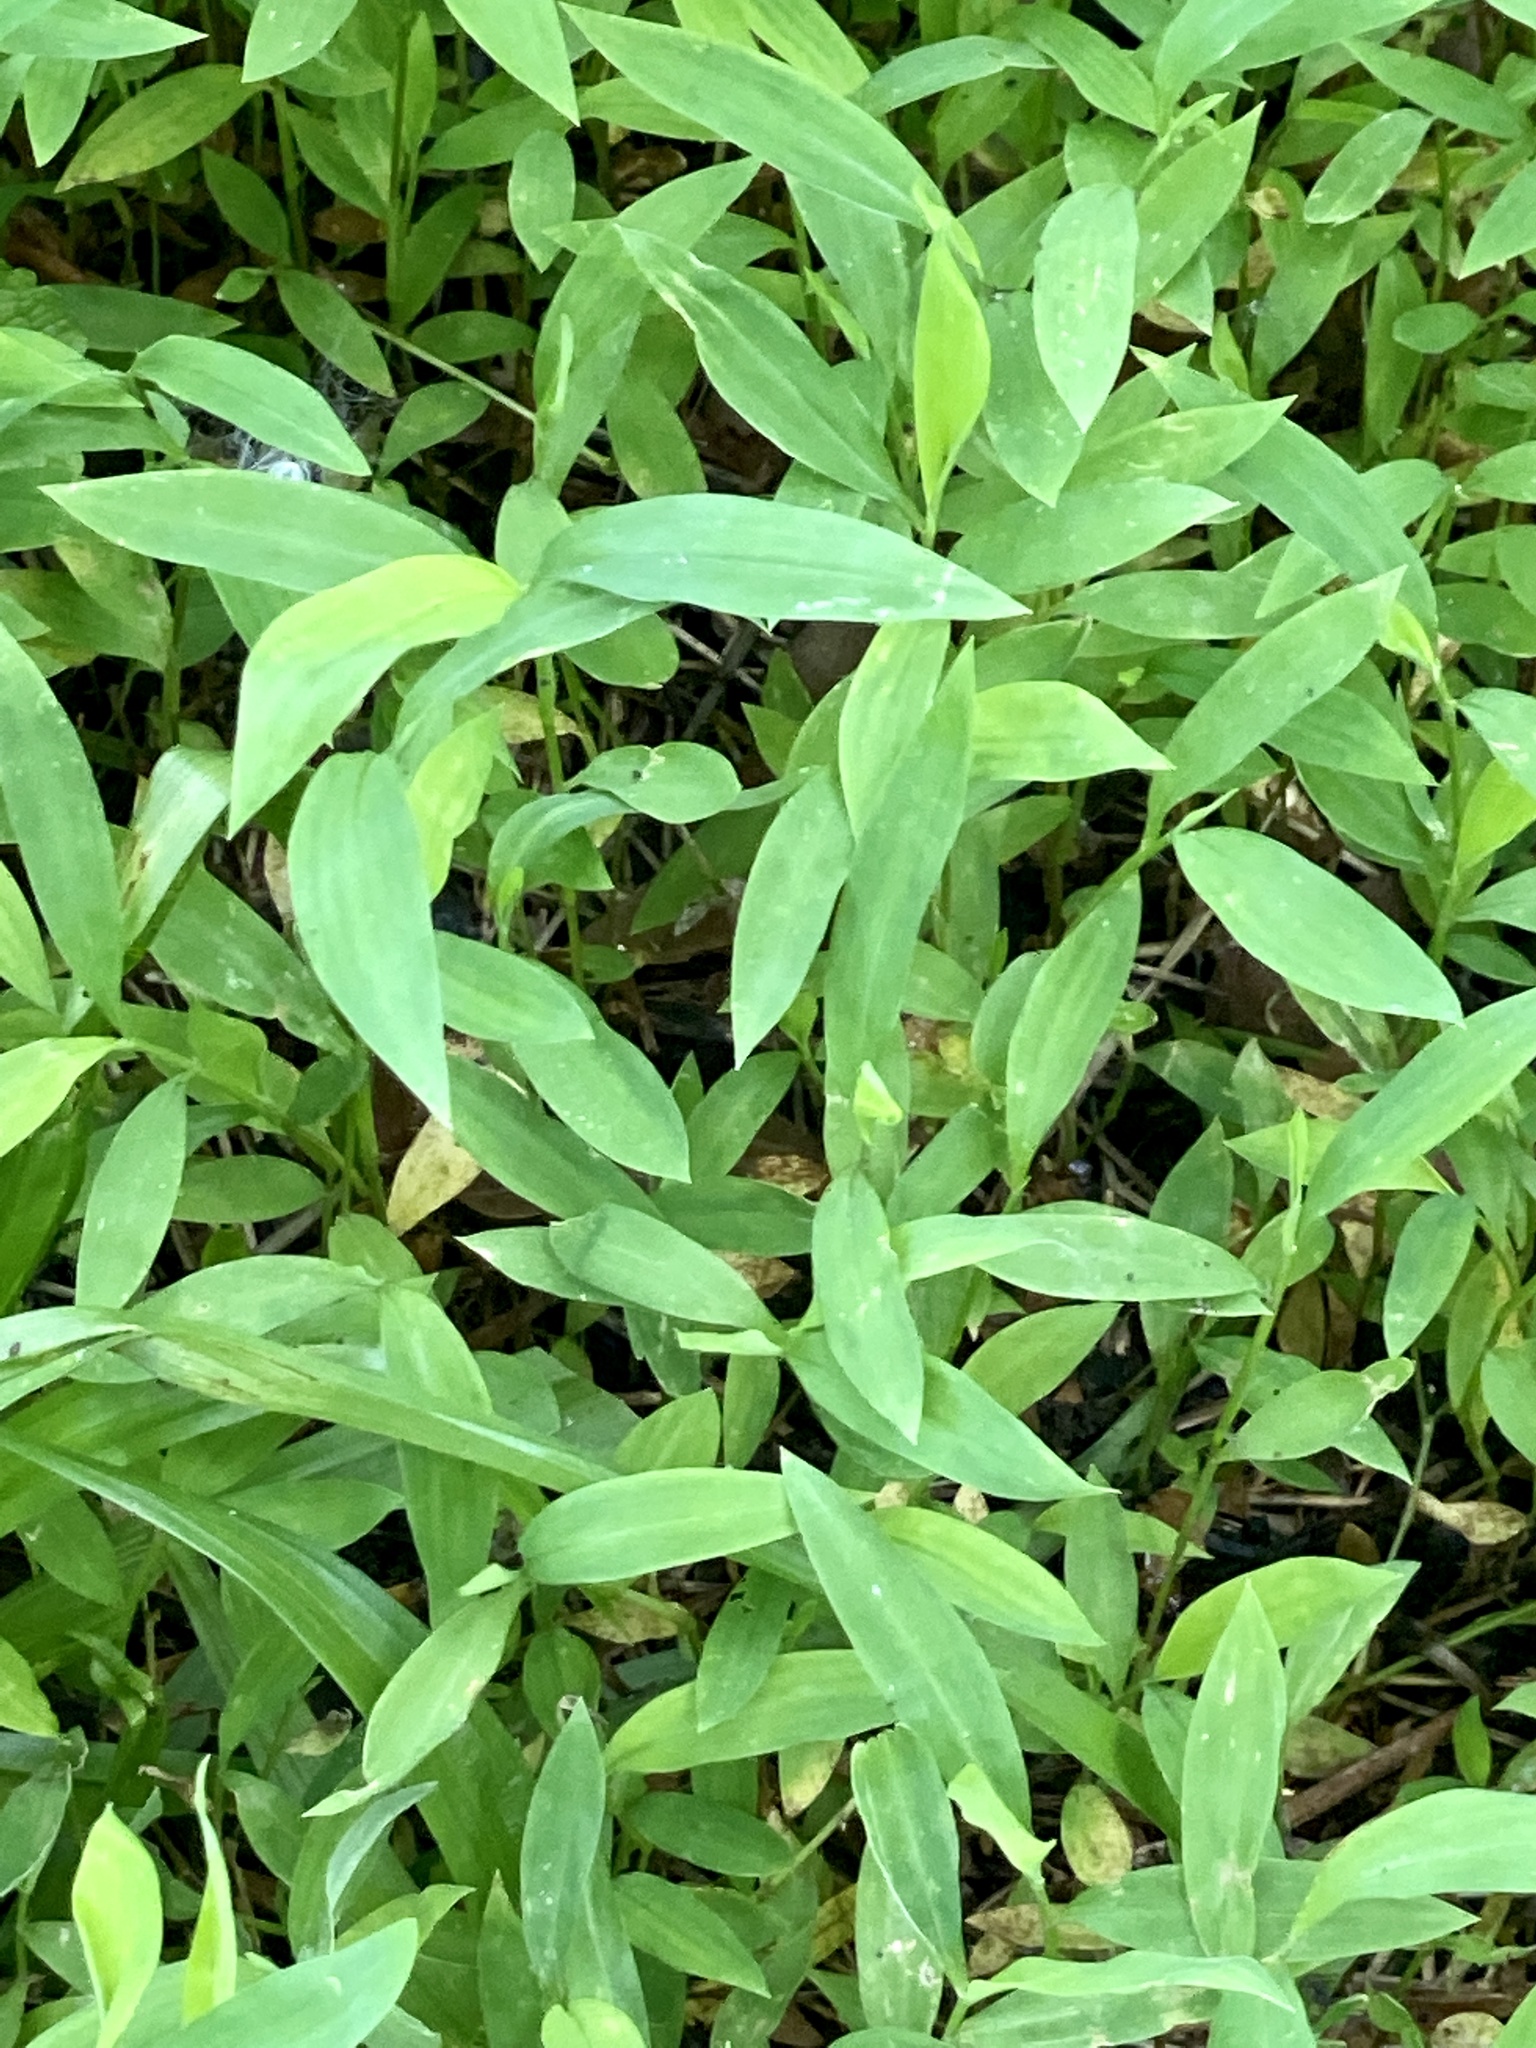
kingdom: Plantae
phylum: Tracheophyta
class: Liliopsida
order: Poales
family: Poaceae
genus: Microstegium
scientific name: Microstegium vimineum
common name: Japanese stiltgrass
